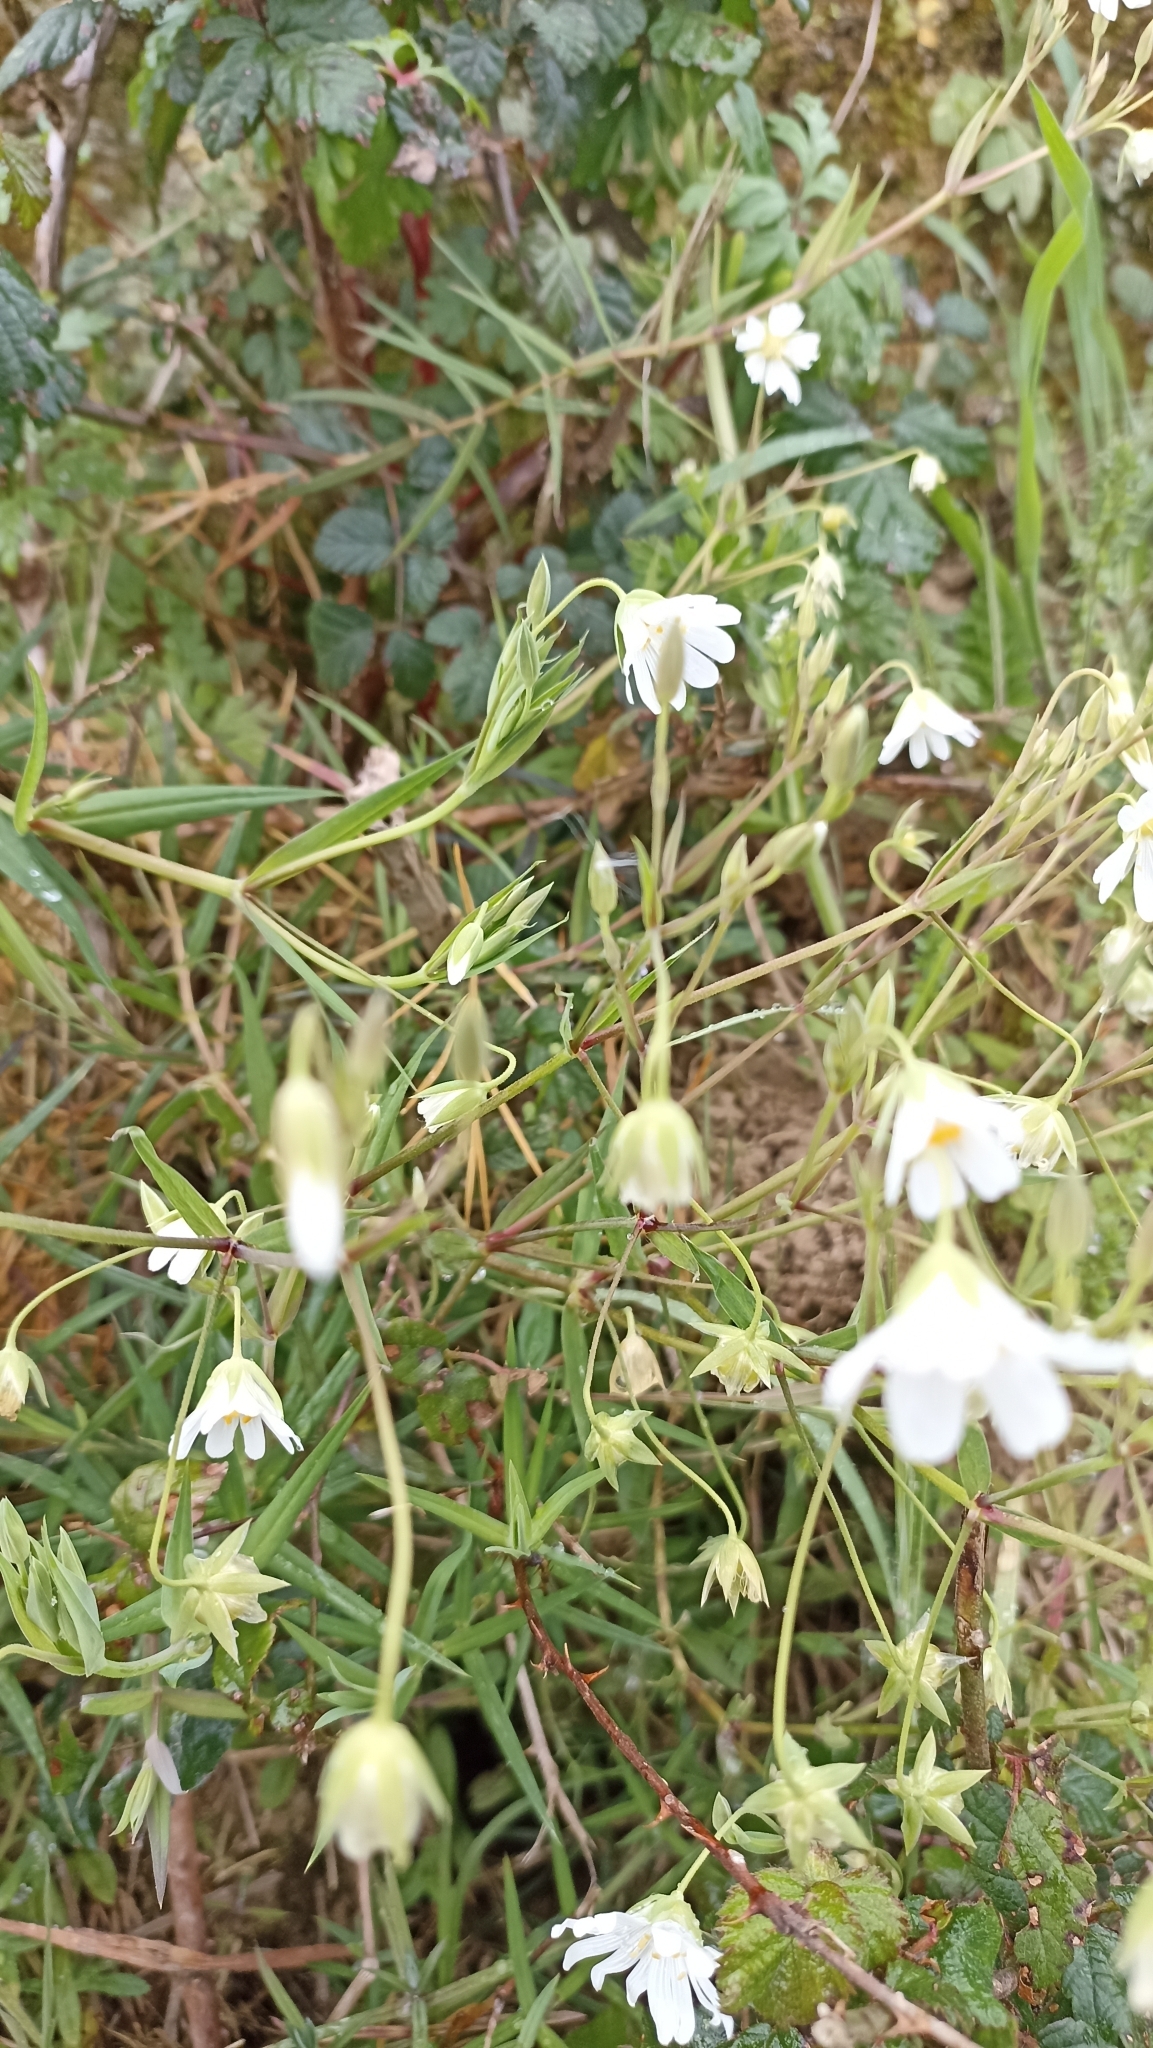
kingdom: Plantae
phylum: Tracheophyta
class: Magnoliopsida
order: Caryophyllales
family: Caryophyllaceae
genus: Rabelera
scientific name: Rabelera holostea
